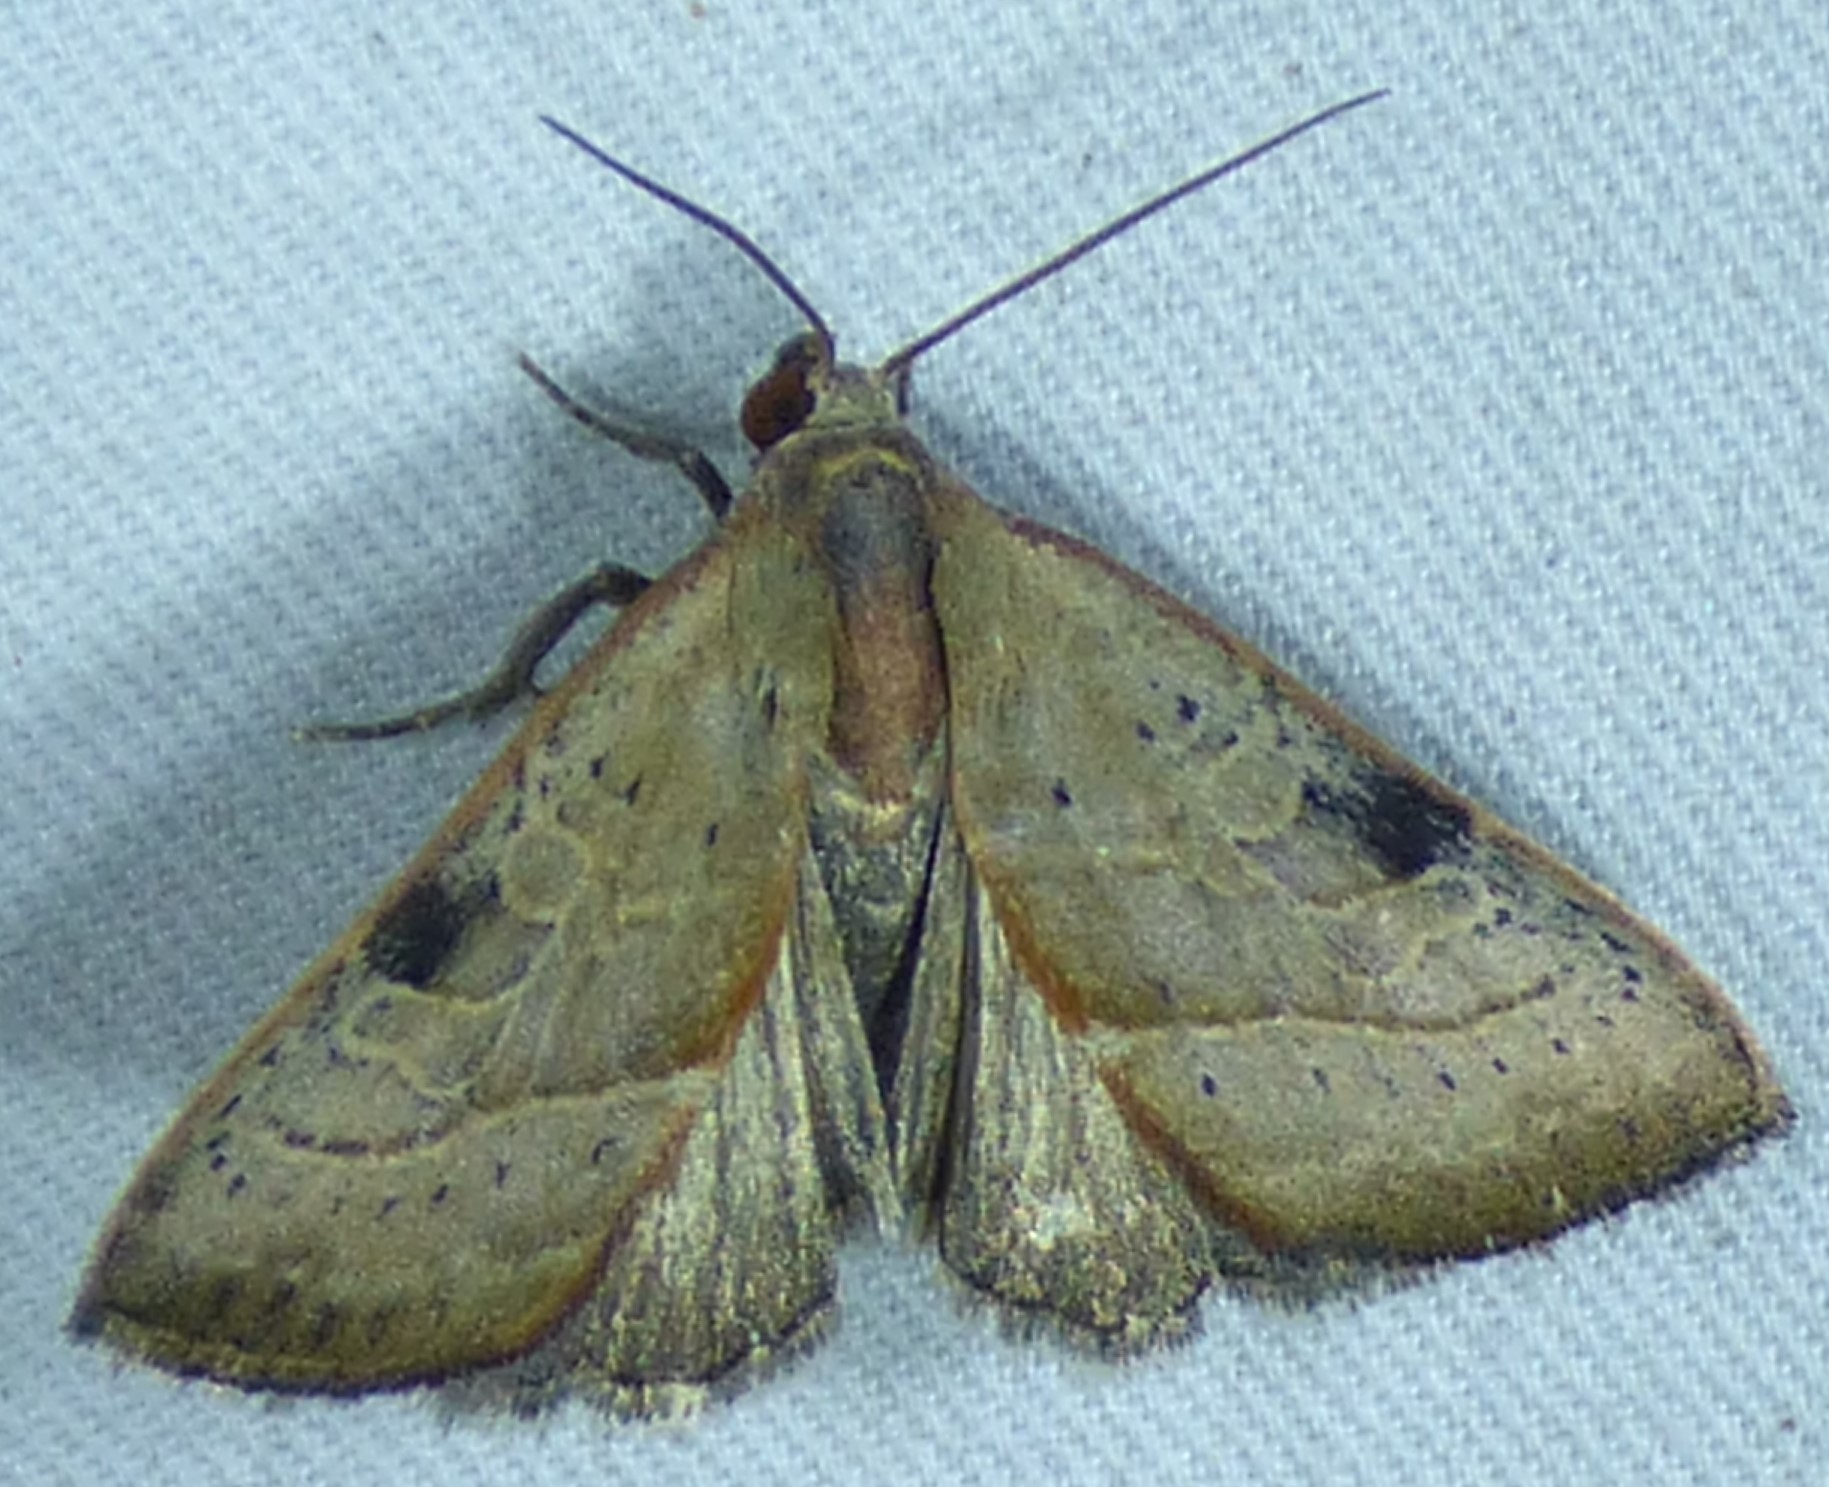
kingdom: Animalia
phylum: Arthropoda
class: Insecta
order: Lepidoptera
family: Noctuidae
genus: Galgula
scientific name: Galgula partita
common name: Wedgeling
